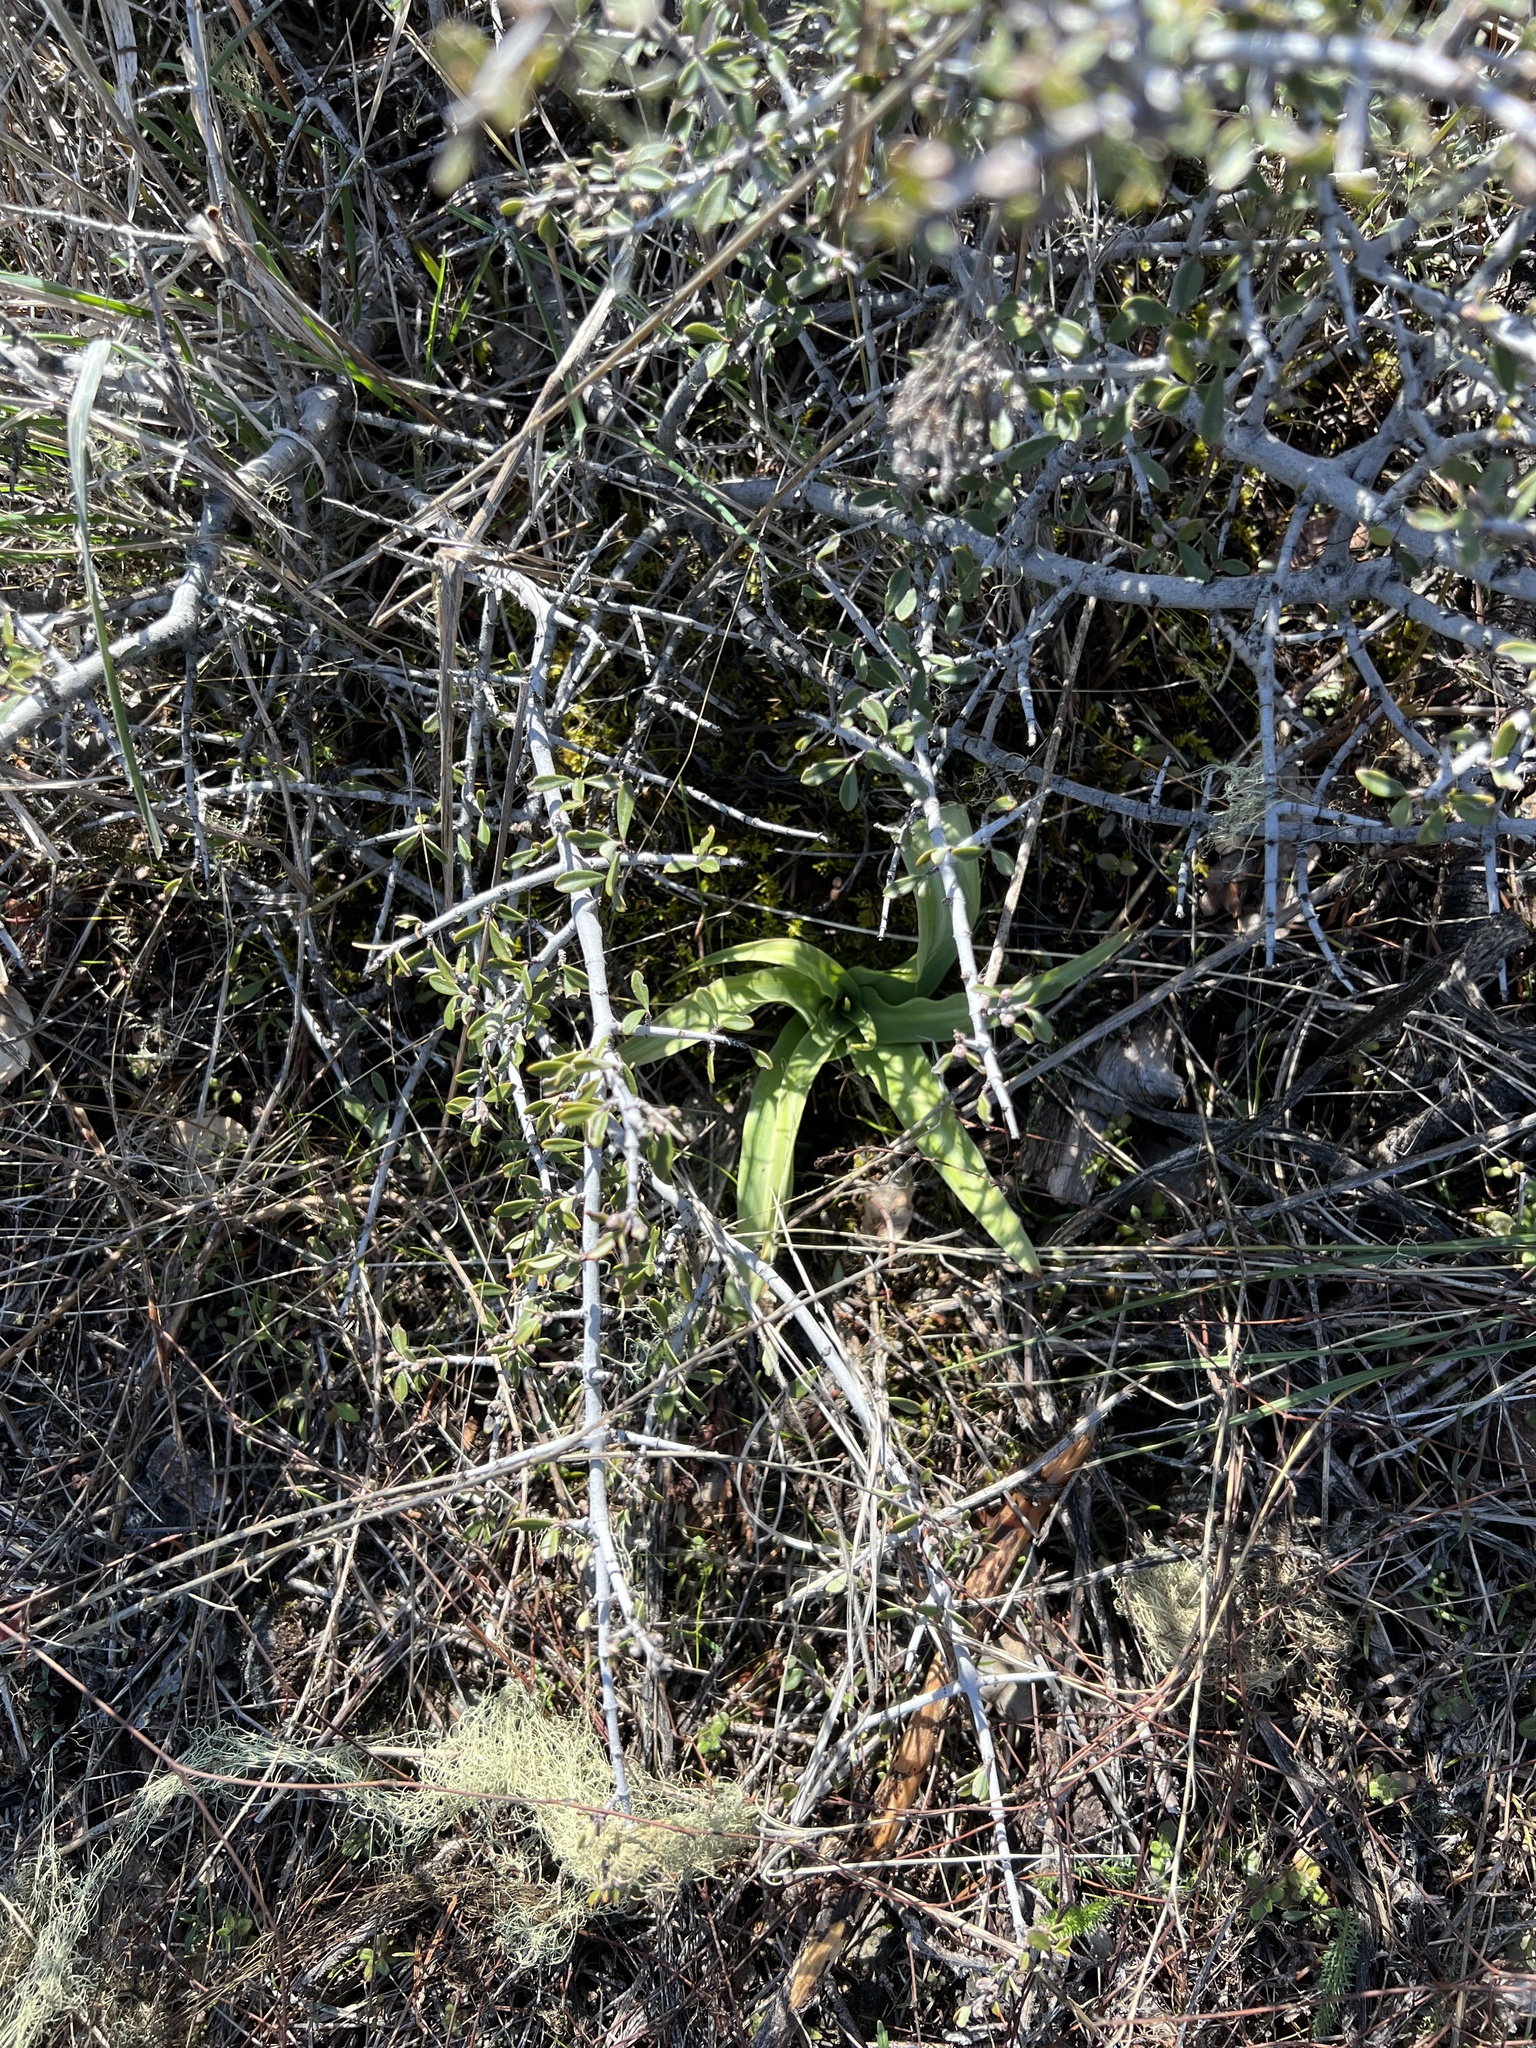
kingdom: Plantae
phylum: Tracheophyta
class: Liliopsida
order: Asparagales
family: Asparagaceae
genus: Chlorogalum
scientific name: Chlorogalum pomeridianum
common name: Amole
